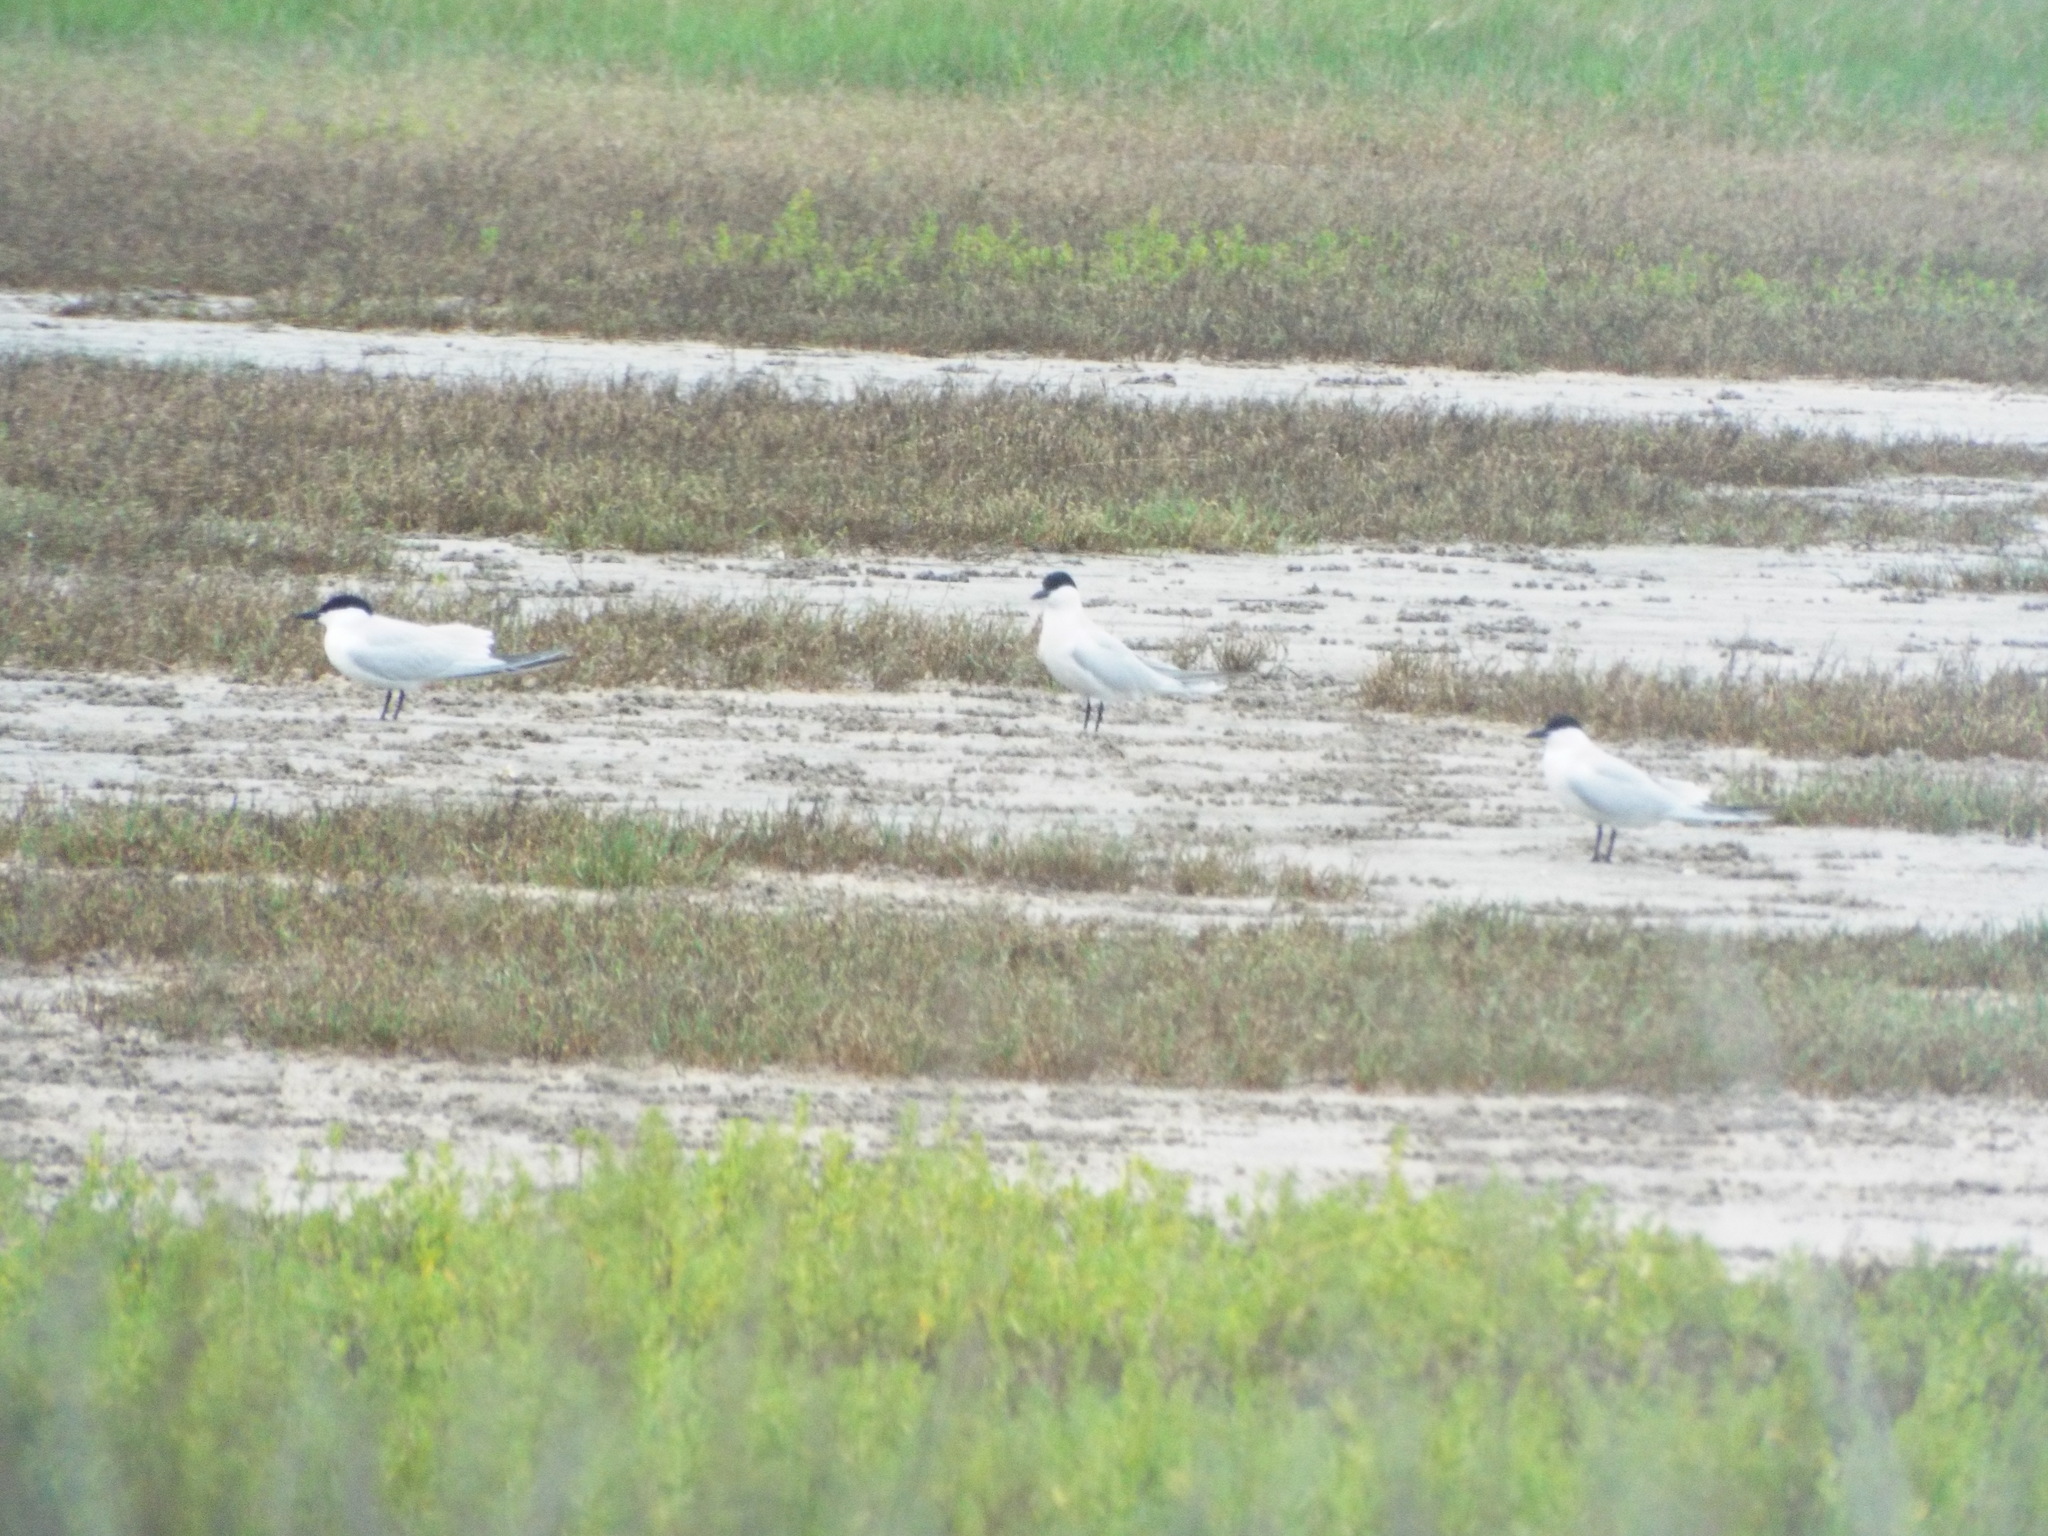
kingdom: Animalia
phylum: Chordata
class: Aves
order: Charadriiformes
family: Laridae
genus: Gelochelidon
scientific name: Gelochelidon nilotica
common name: Gull-billed tern
